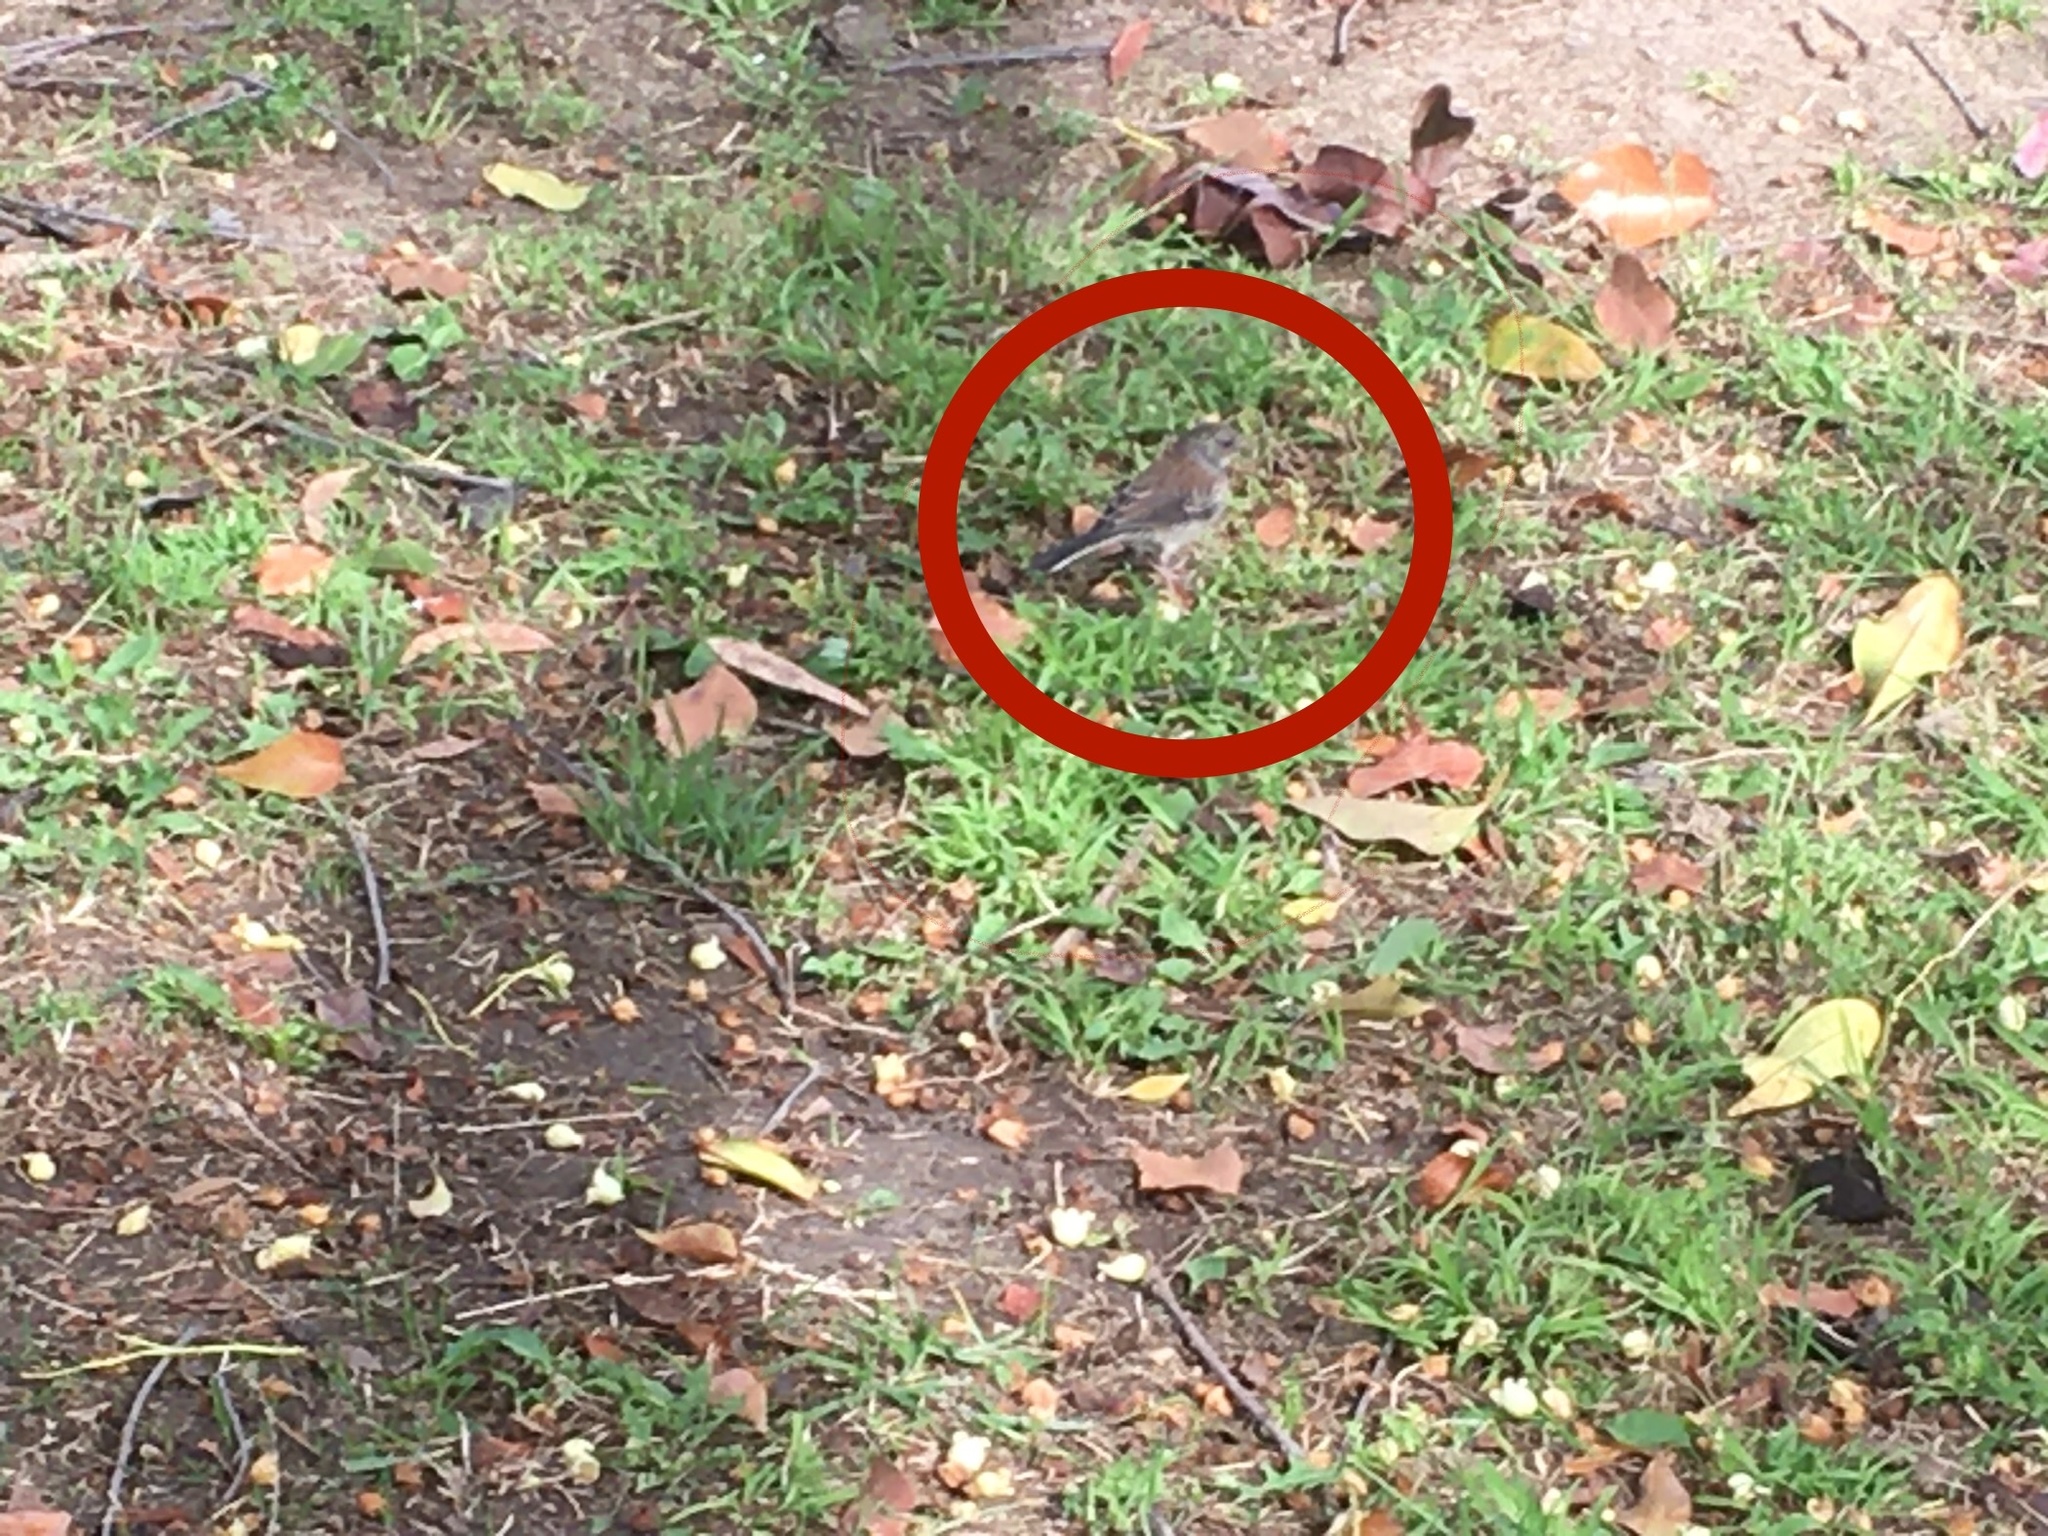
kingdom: Animalia
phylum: Chordata
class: Aves
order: Passeriformes
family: Passerellidae
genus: Junco
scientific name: Junco hyemalis
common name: Dark-eyed junco
